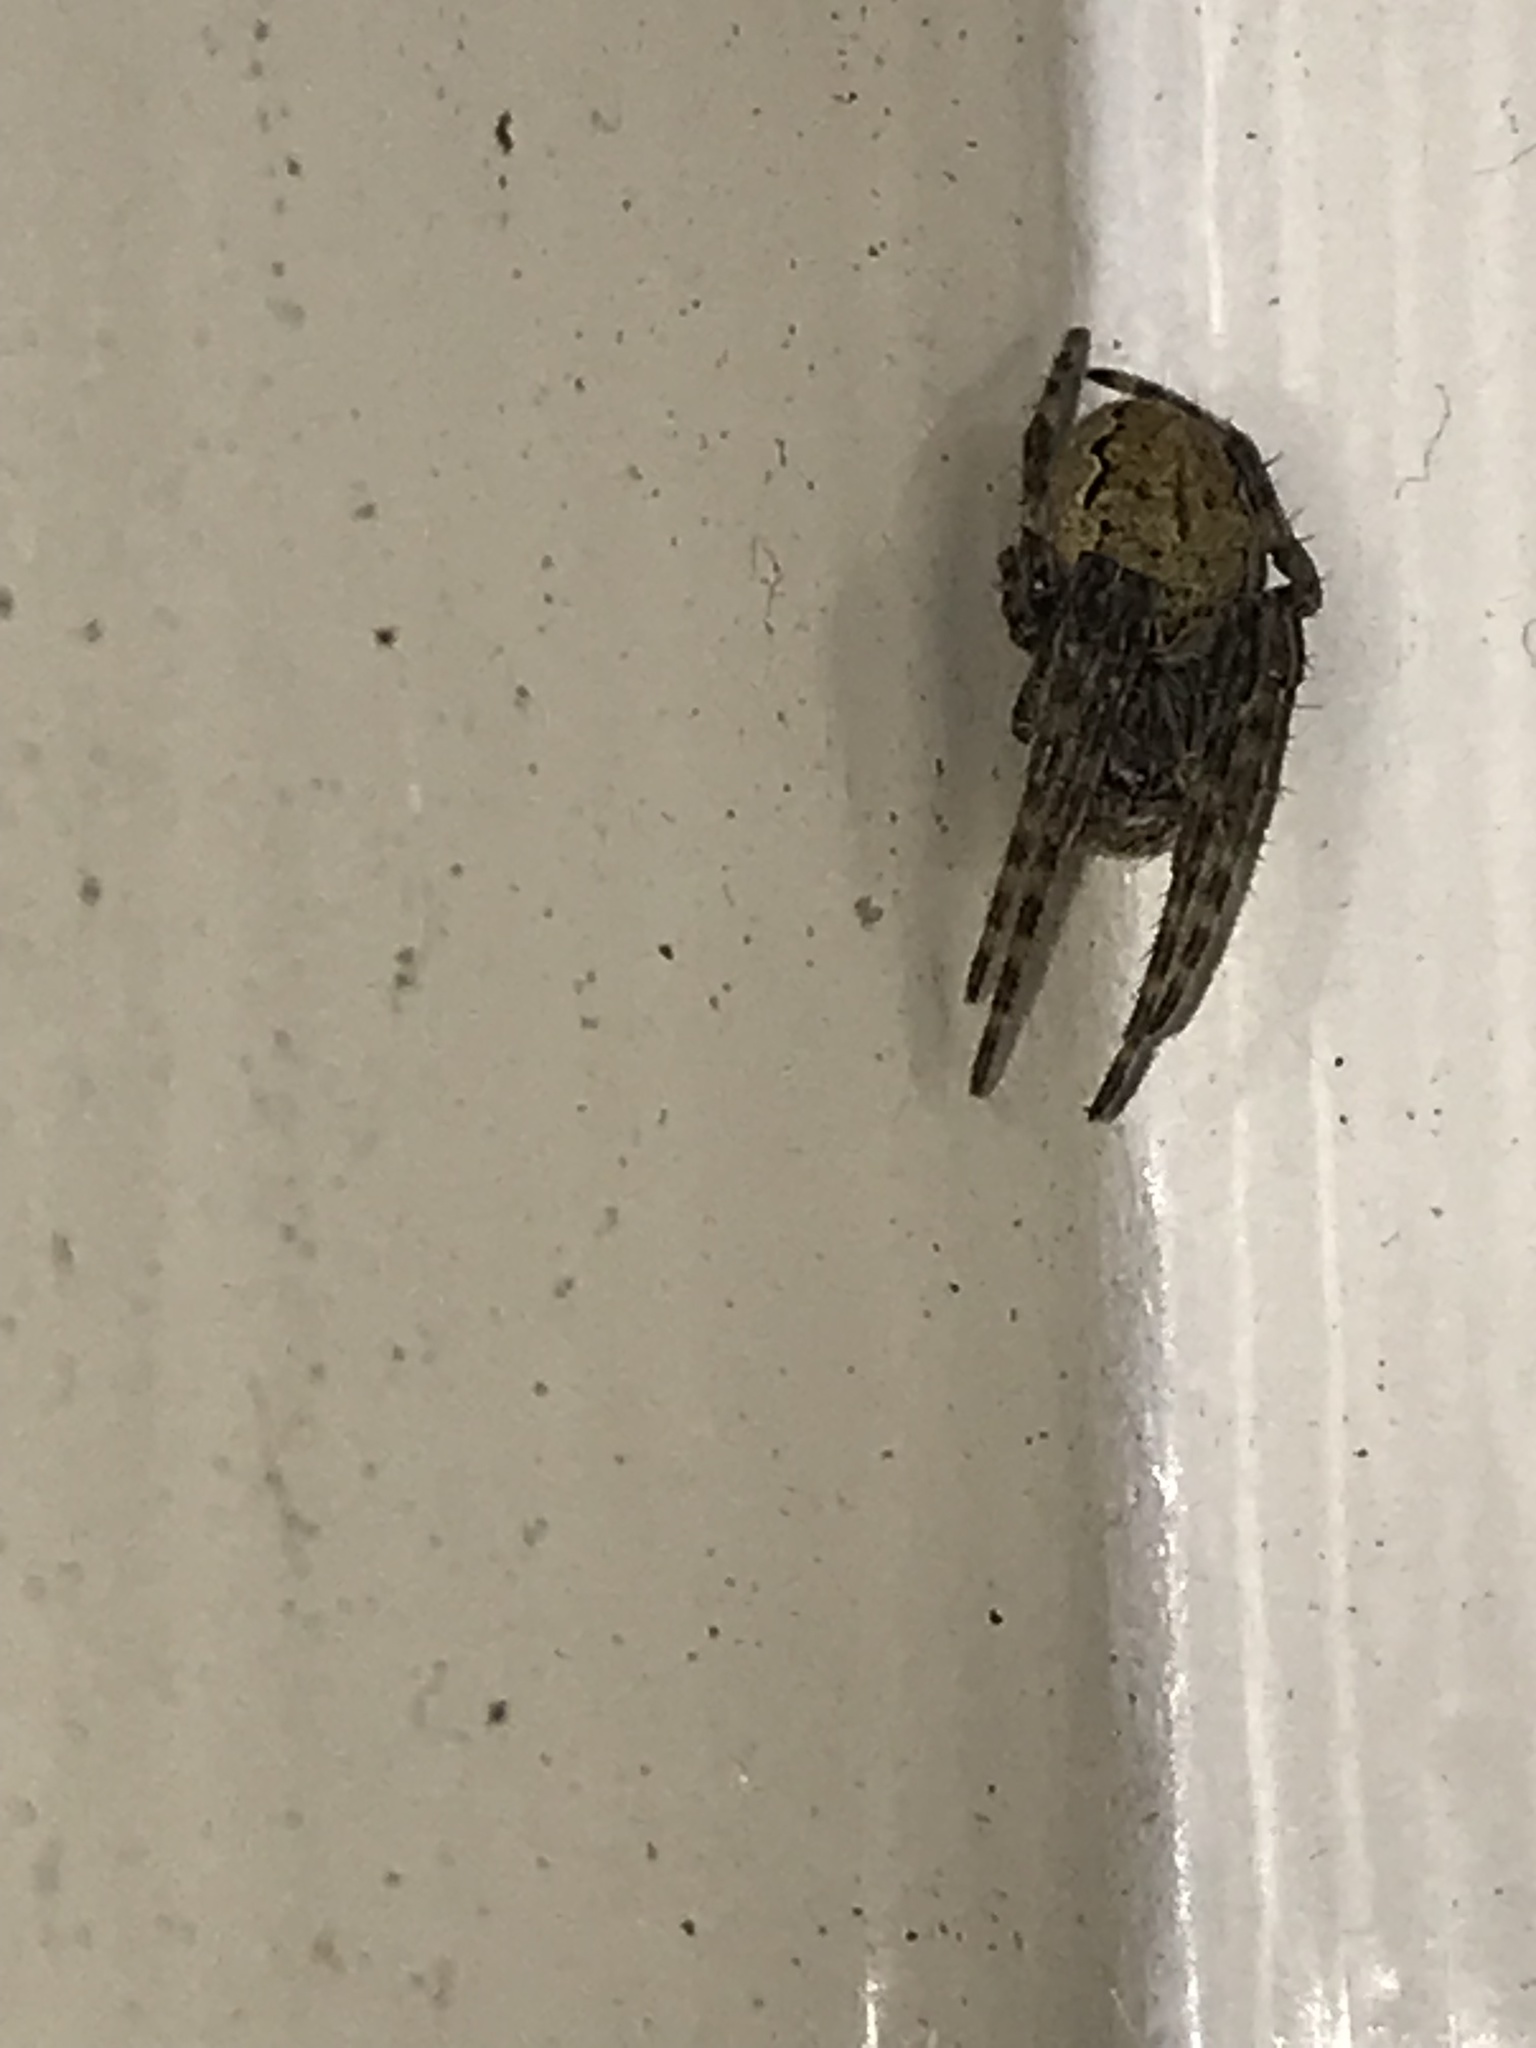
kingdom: Animalia
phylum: Arthropoda
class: Arachnida
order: Araneae
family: Araneidae
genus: Larinioides
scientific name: Larinioides sclopetarius
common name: Bridge orbweaver
